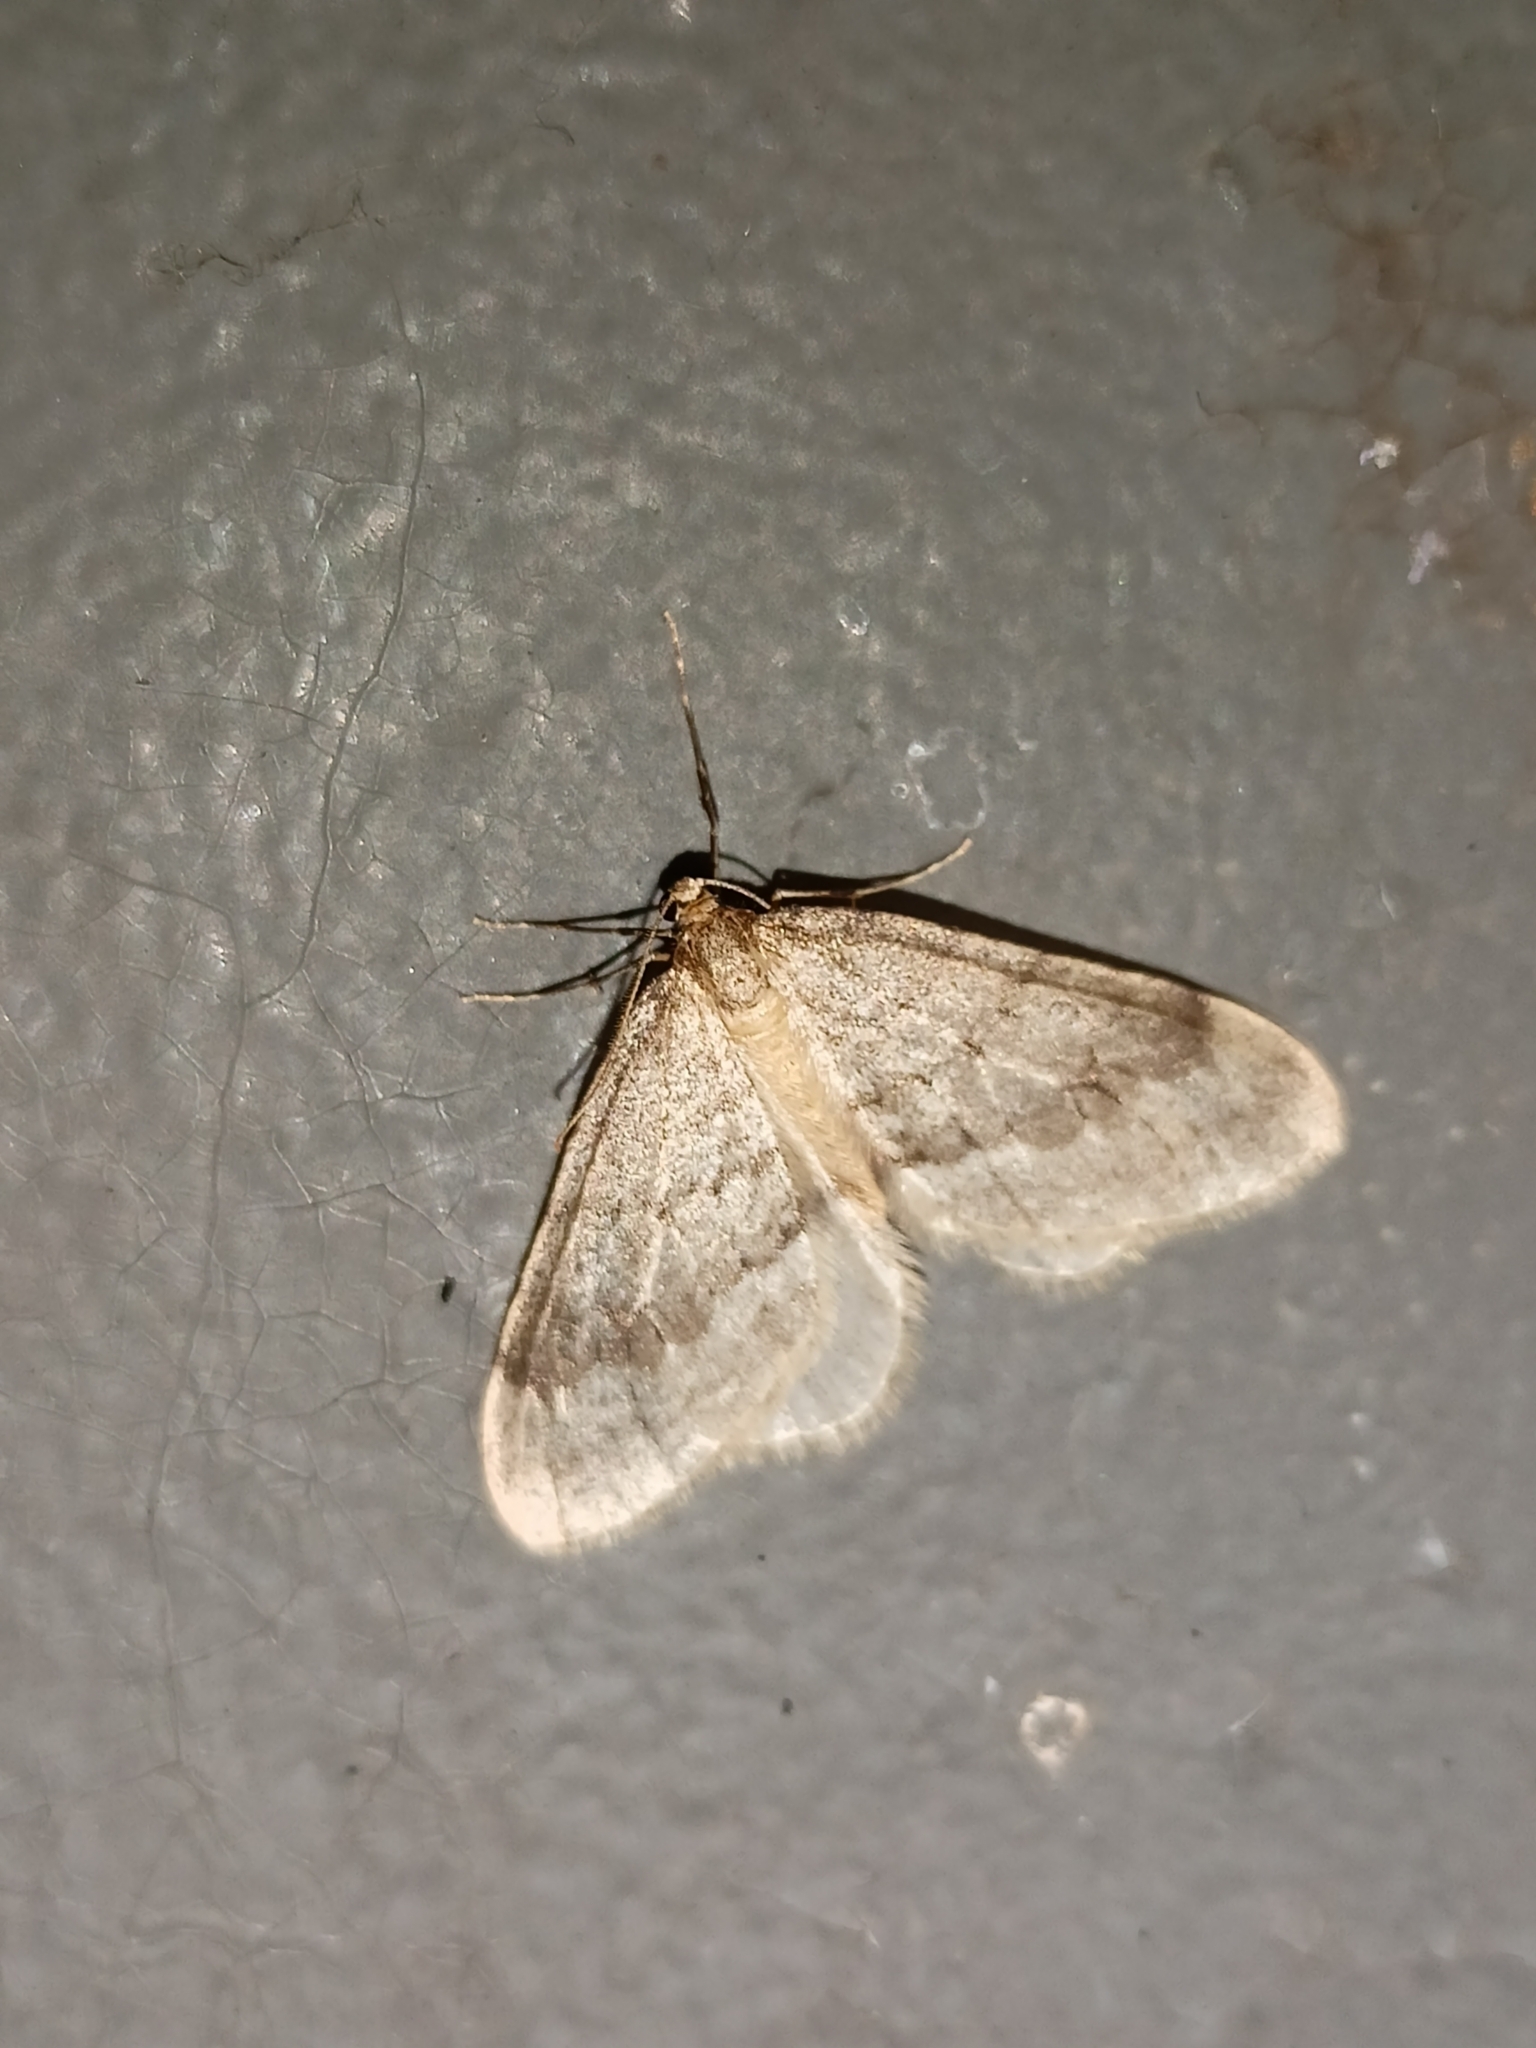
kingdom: Animalia
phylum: Arthropoda
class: Insecta
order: Lepidoptera
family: Geometridae
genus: Operophtera
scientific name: Operophtera fagata
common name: Northern winter moth
